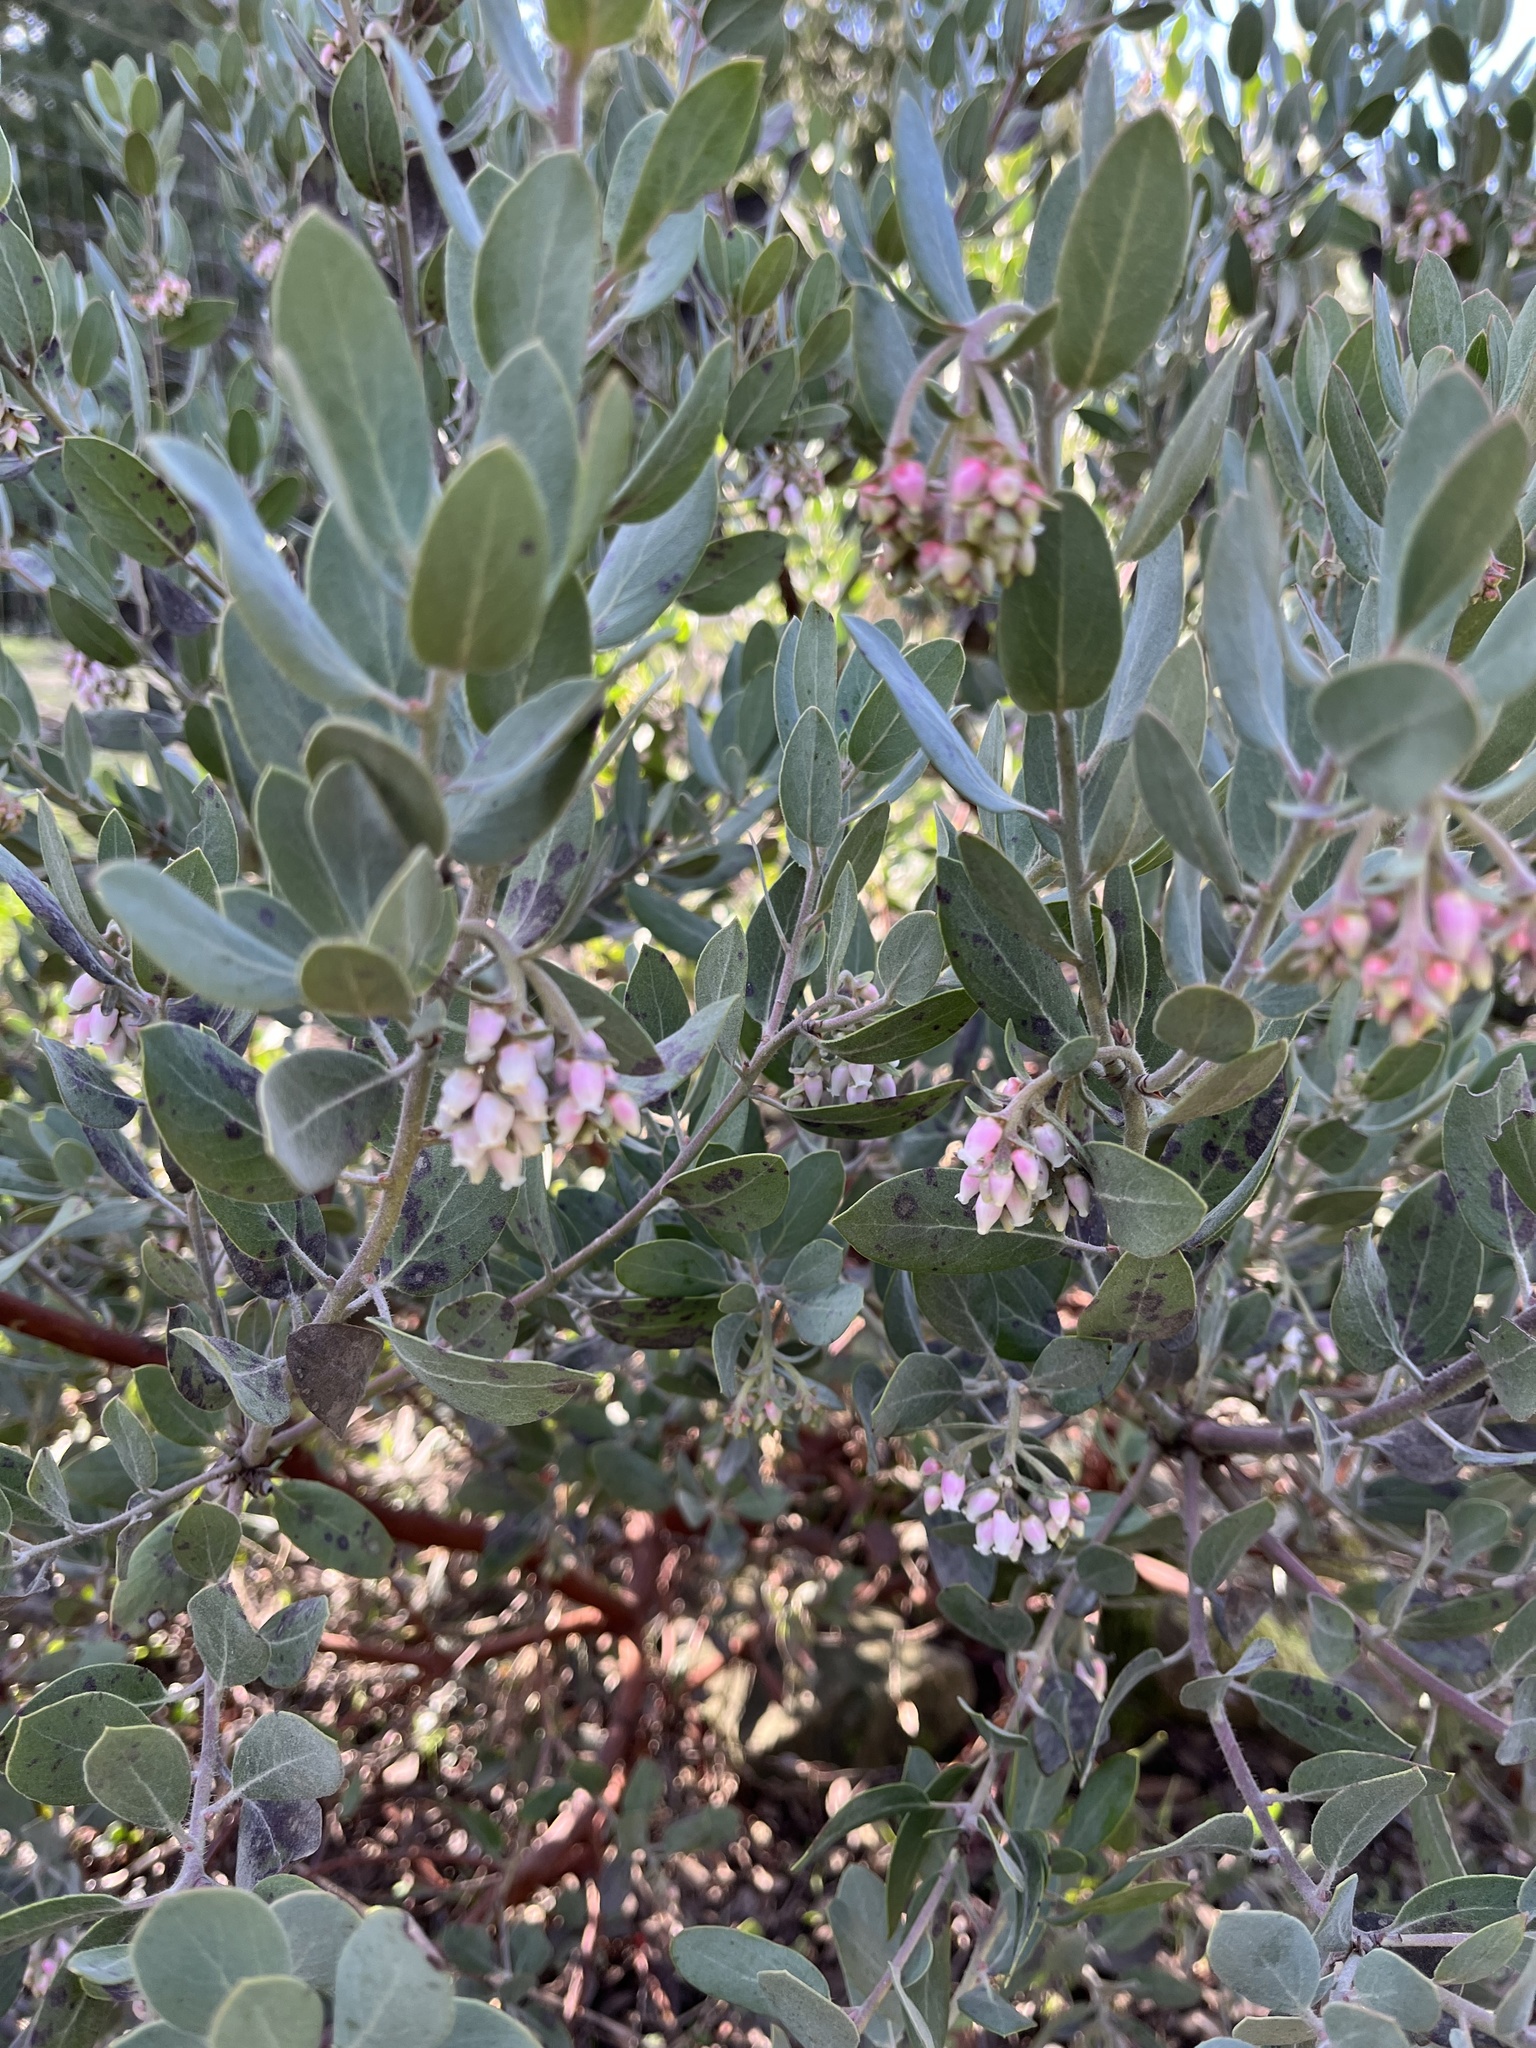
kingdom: Plantae
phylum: Tracheophyta
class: Magnoliopsida
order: Ericales
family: Ericaceae
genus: Arctostaphylos
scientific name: Arctostaphylos columbiana
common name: Bristly bearberry
